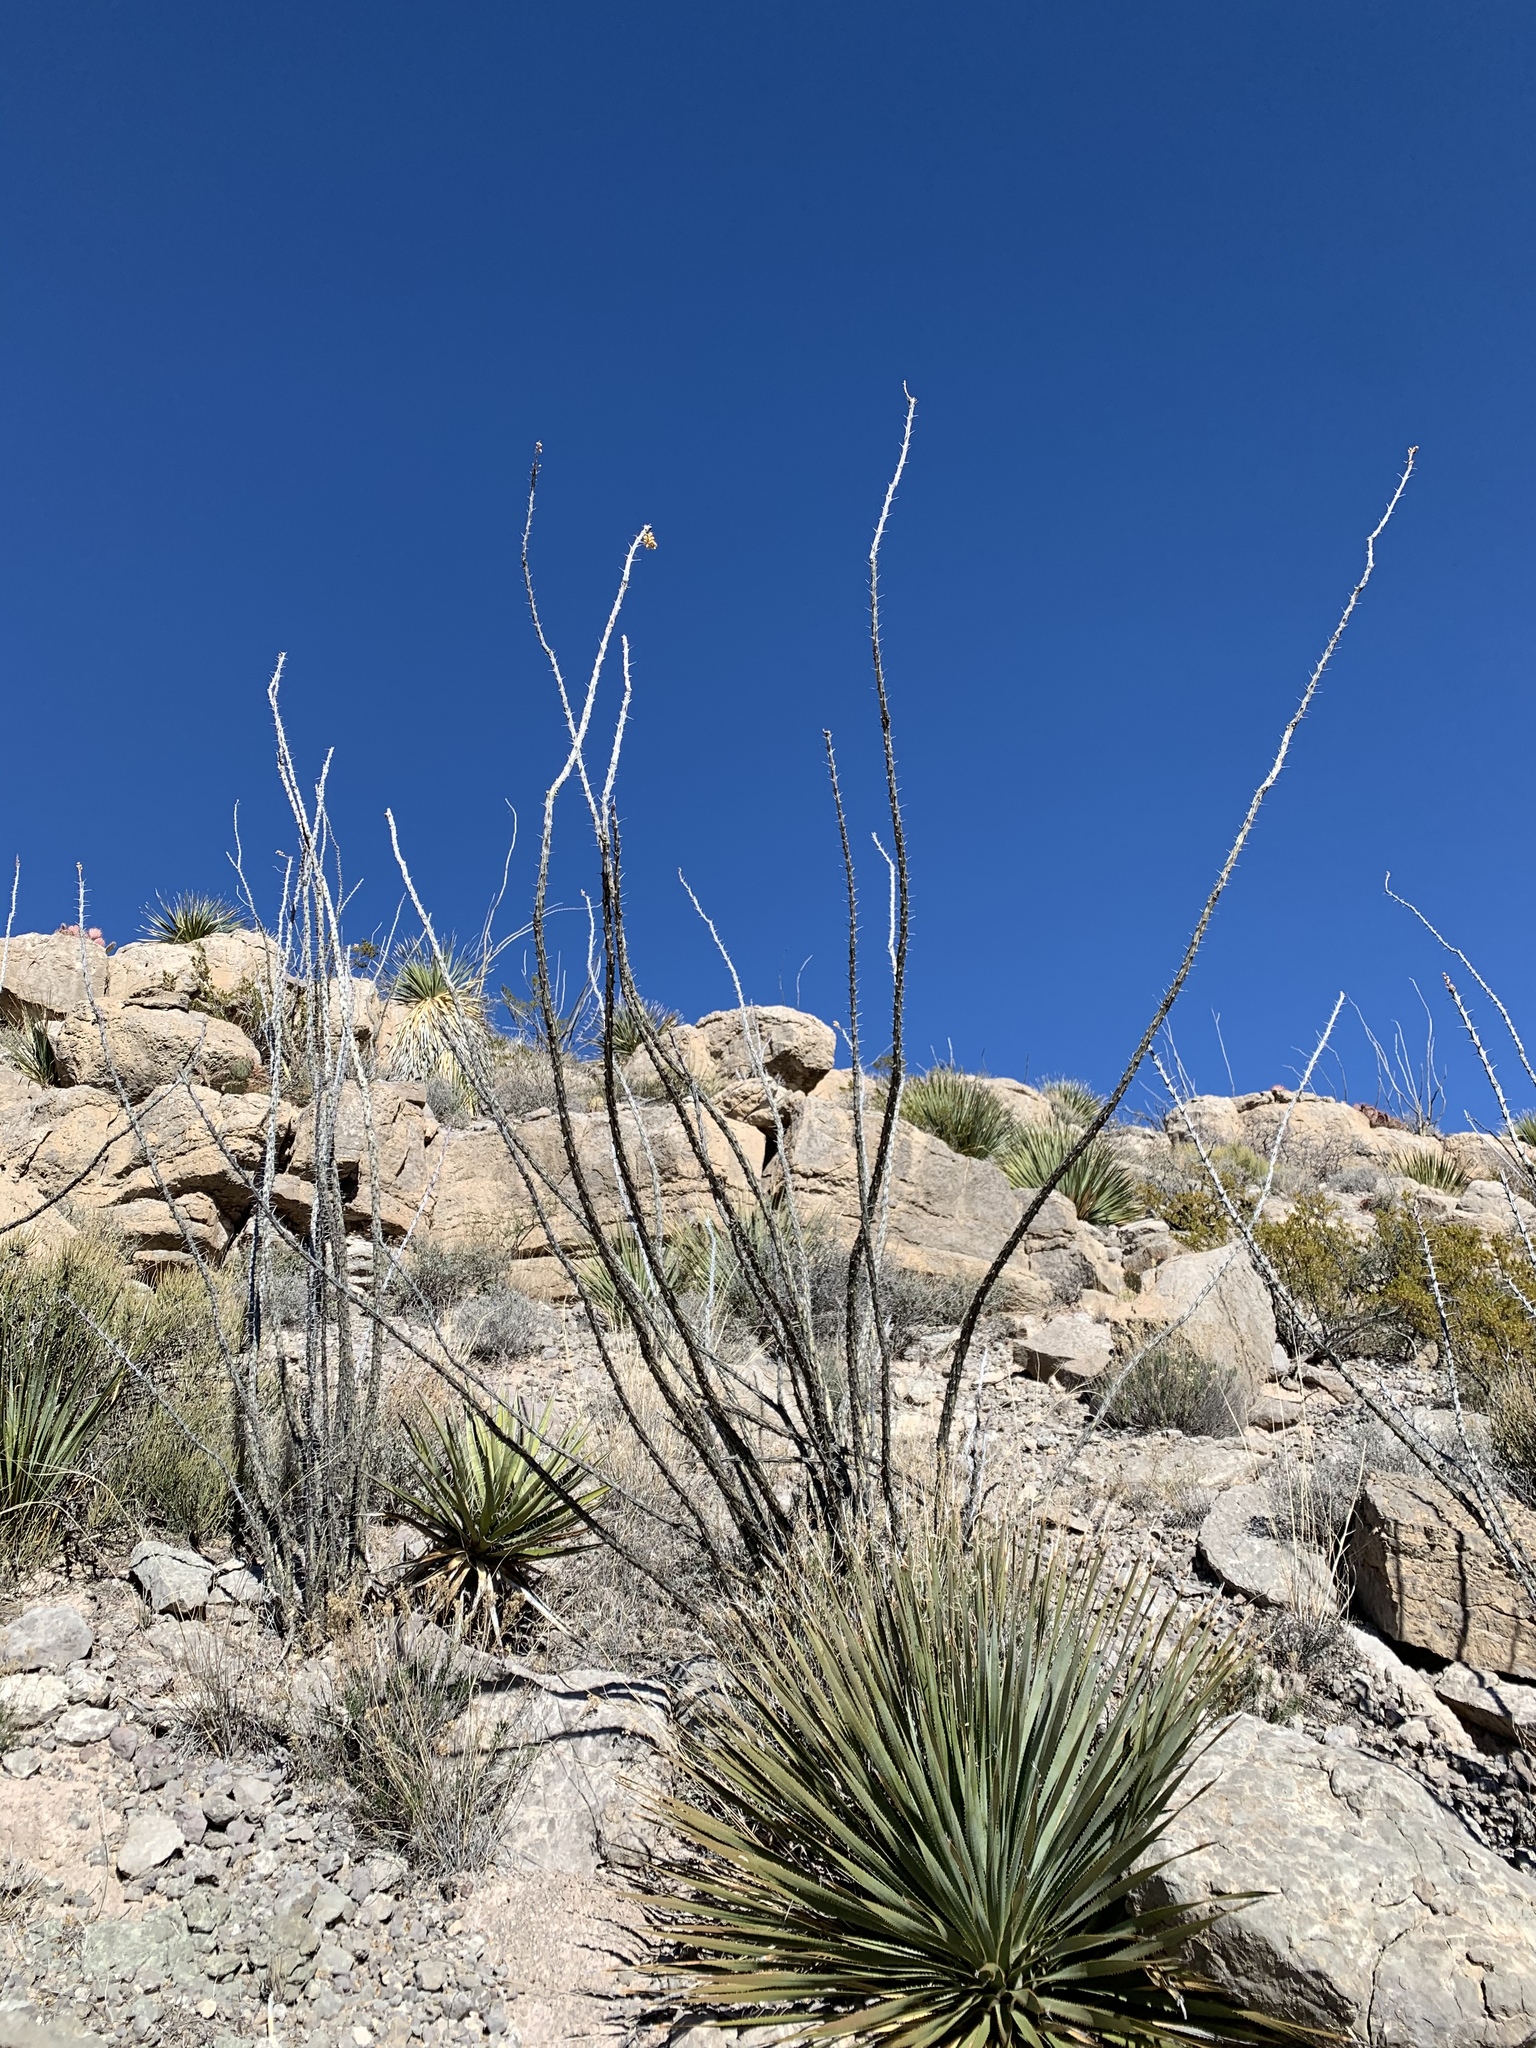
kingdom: Plantae
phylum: Tracheophyta
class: Magnoliopsida
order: Ericales
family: Fouquieriaceae
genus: Fouquieria
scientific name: Fouquieria splendens
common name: Vine-cactus
